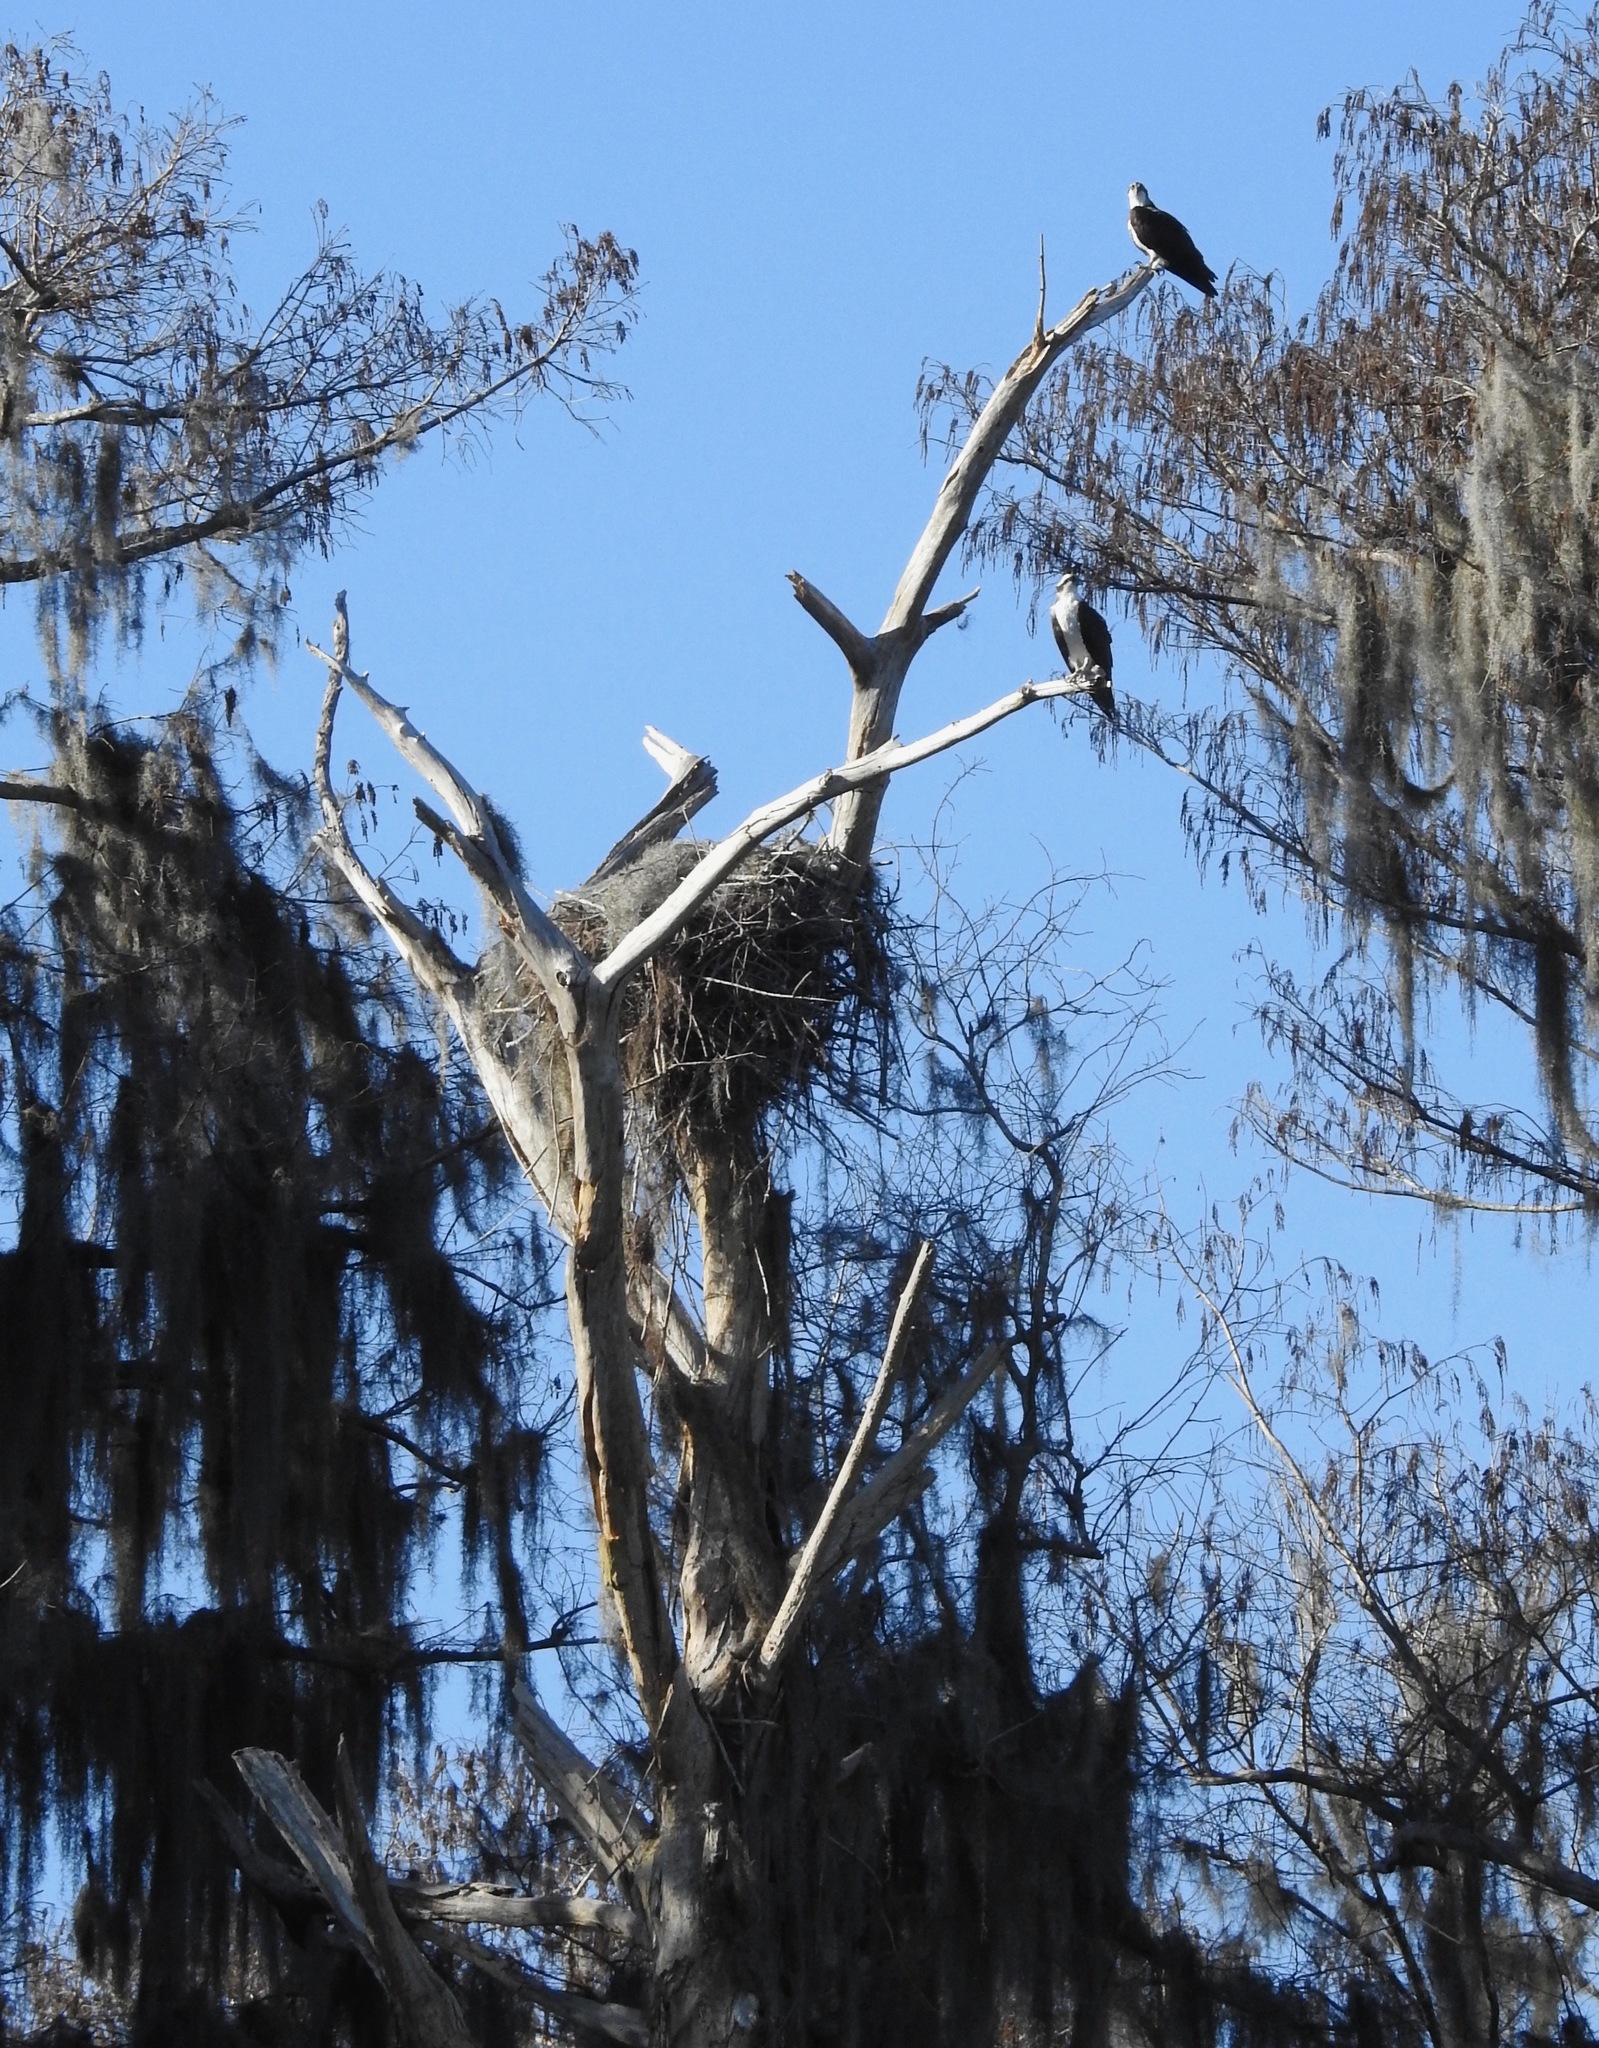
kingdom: Animalia
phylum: Chordata
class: Aves
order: Accipitriformes
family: Pandionidae
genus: Pandion
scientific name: Pandion haliaetus
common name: Osprey
